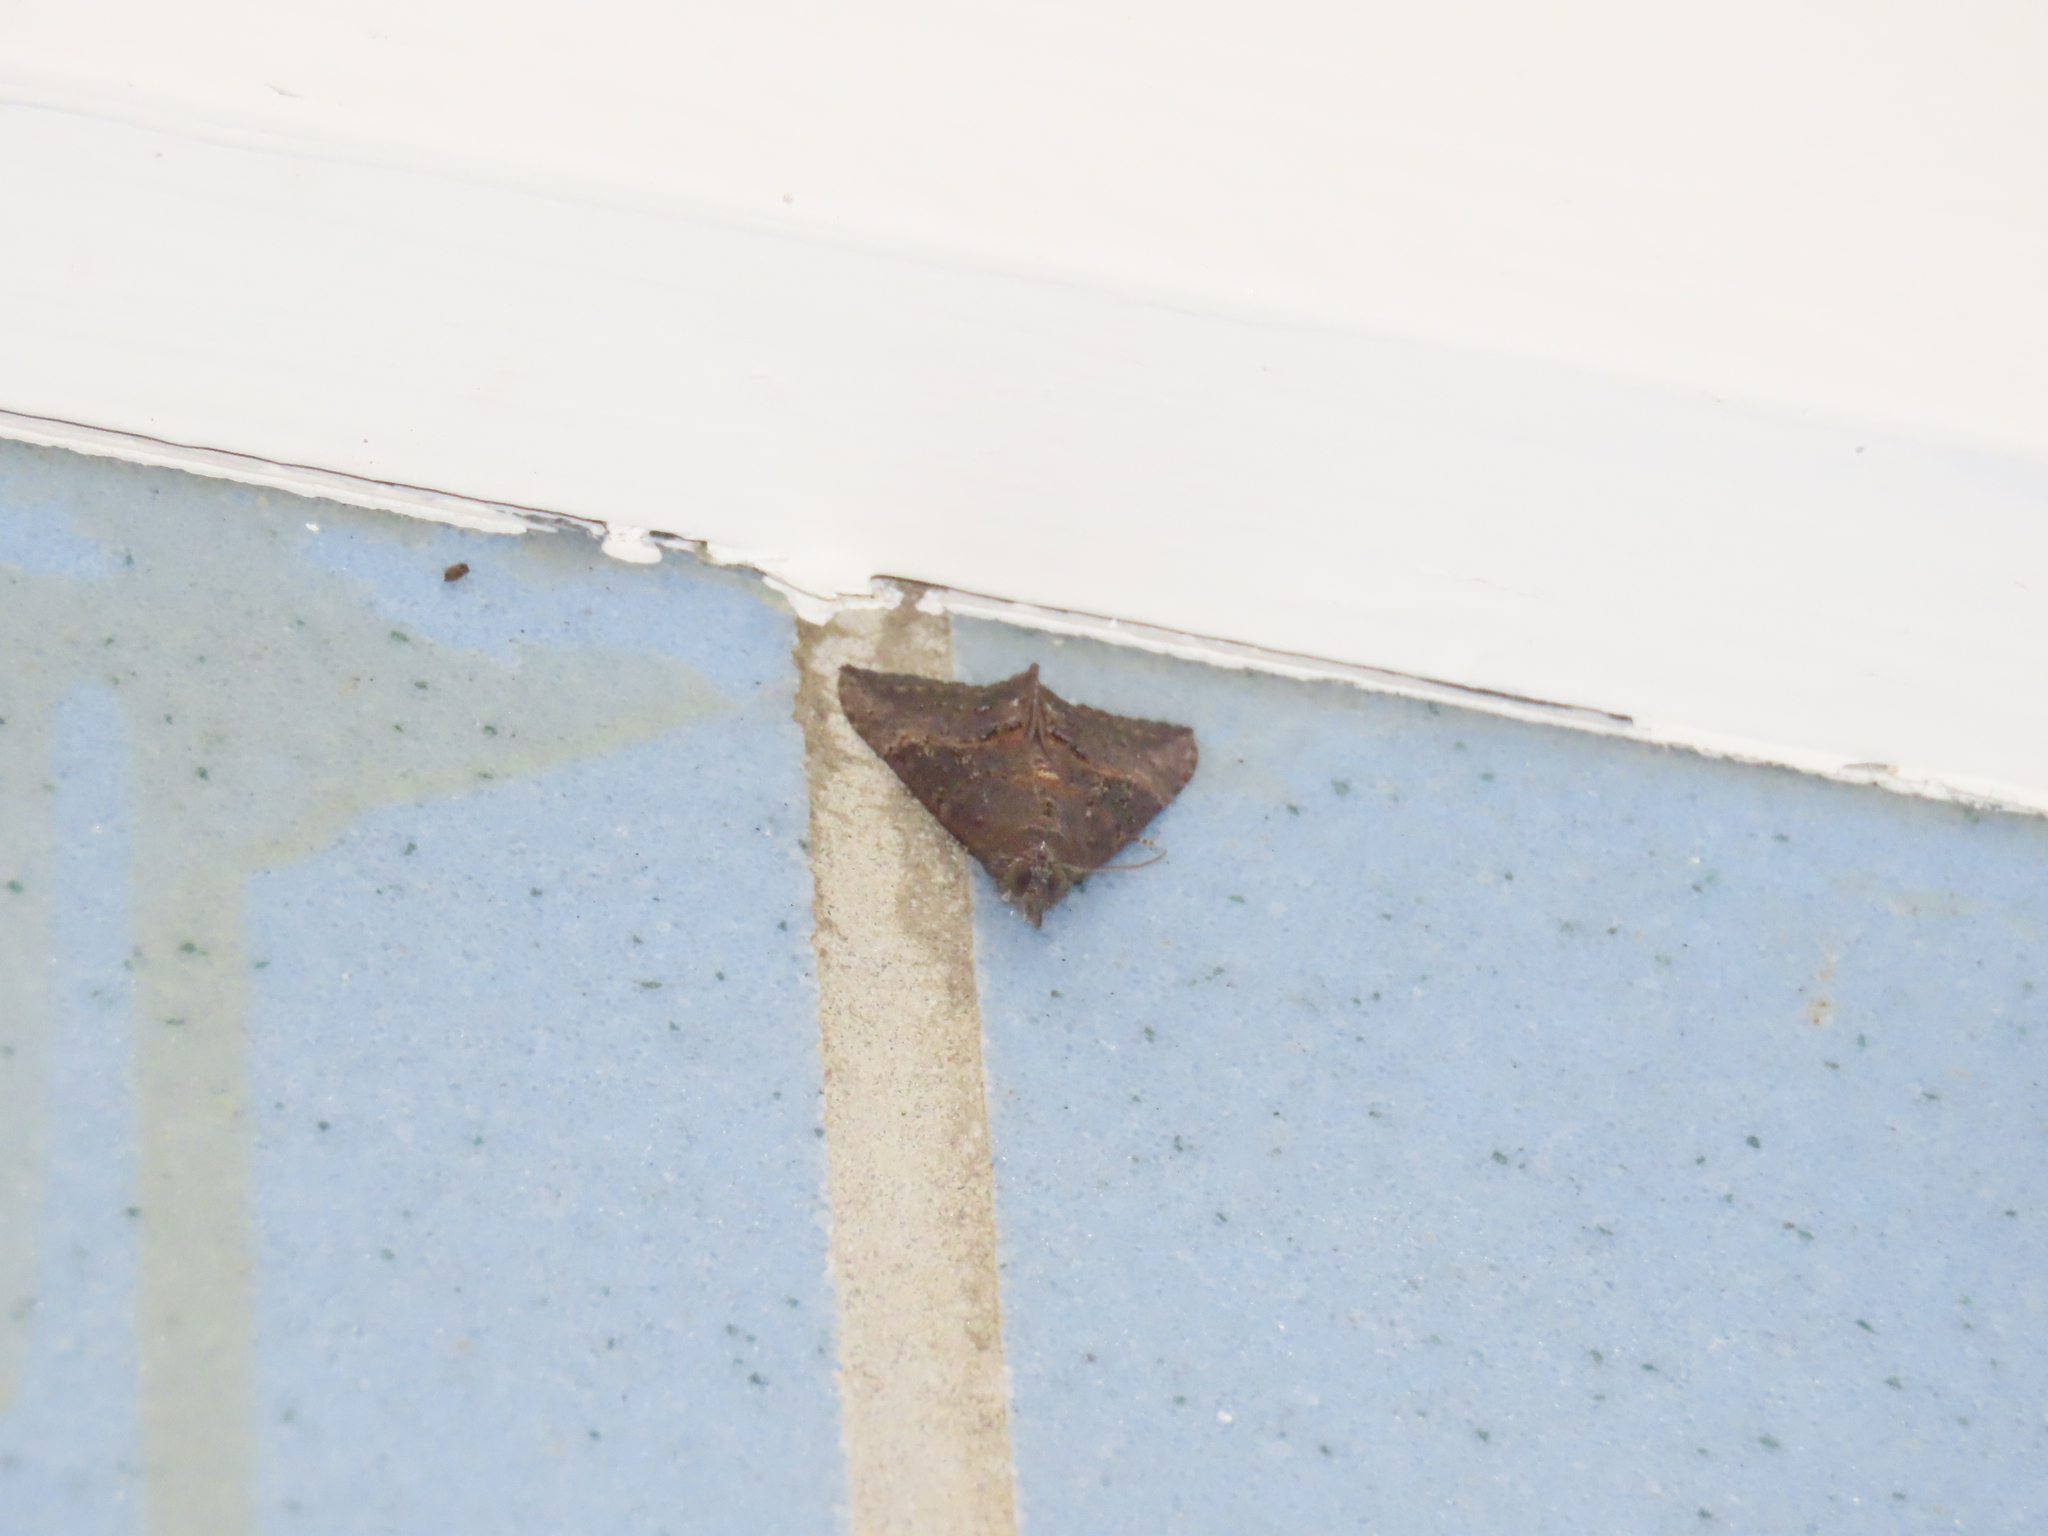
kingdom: Animalia
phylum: Arthropoda
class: Insecta
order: Lepidoptera
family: Erebidae
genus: Hypena
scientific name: Hypena scabra
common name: Green cloverworm
